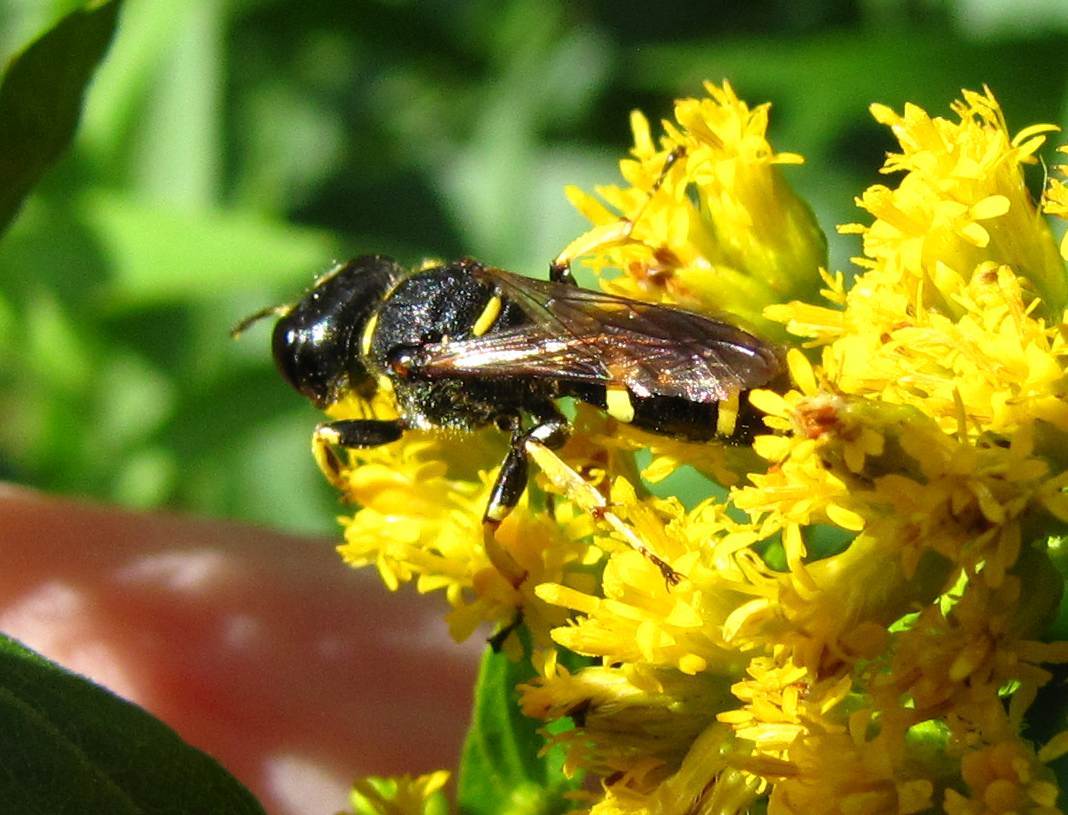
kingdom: Animalia
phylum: Arthropoda
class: Insecta
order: Hymenoptera
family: Crabronidae
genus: Ectemnius
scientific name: Ectemnius continuus
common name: Common ectemnius
